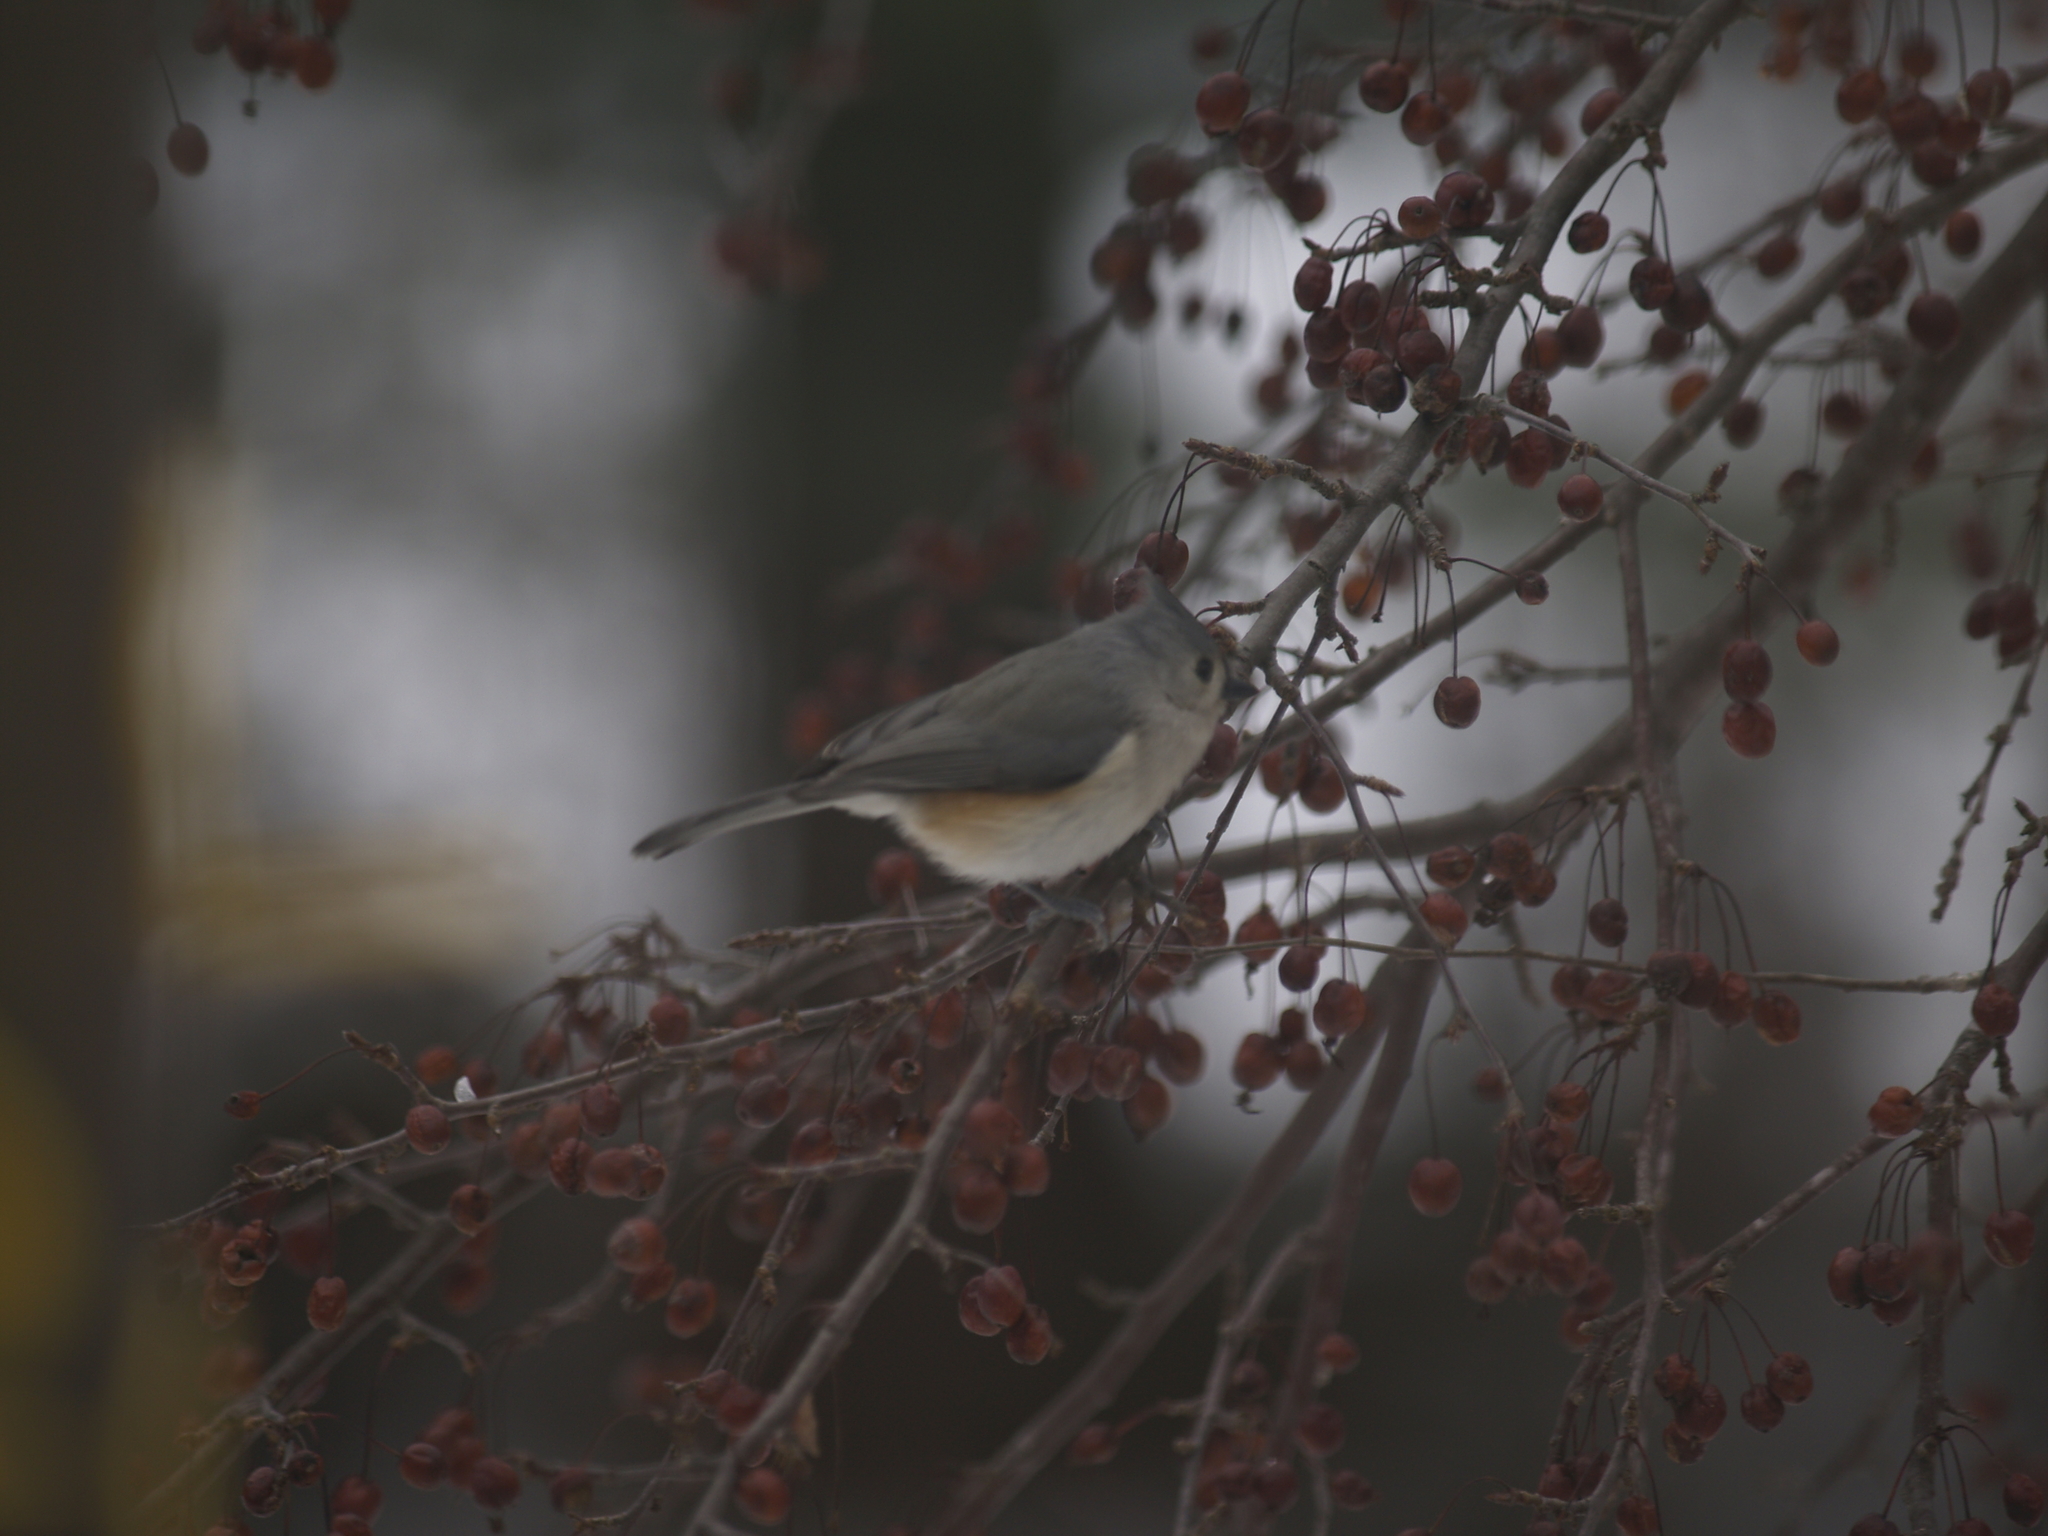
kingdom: Animalia
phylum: Chordata
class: Aves
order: Passeriformes
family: Paridae
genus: Baeolophus
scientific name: Baeolophus bicolor
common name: Tufted titmouse
